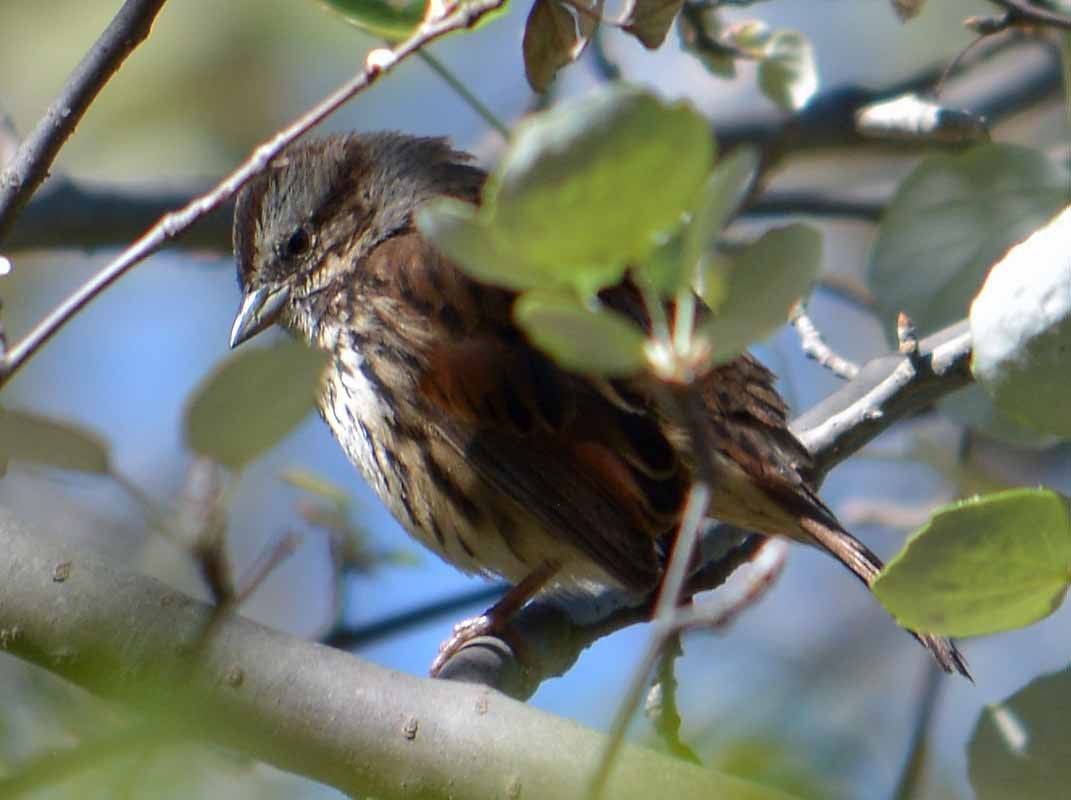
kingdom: Animalia
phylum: Chordata
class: Aves
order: Passeriformes
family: Passerellidae
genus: Melospiza
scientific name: Melospiza melodia
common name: Song sparrow
